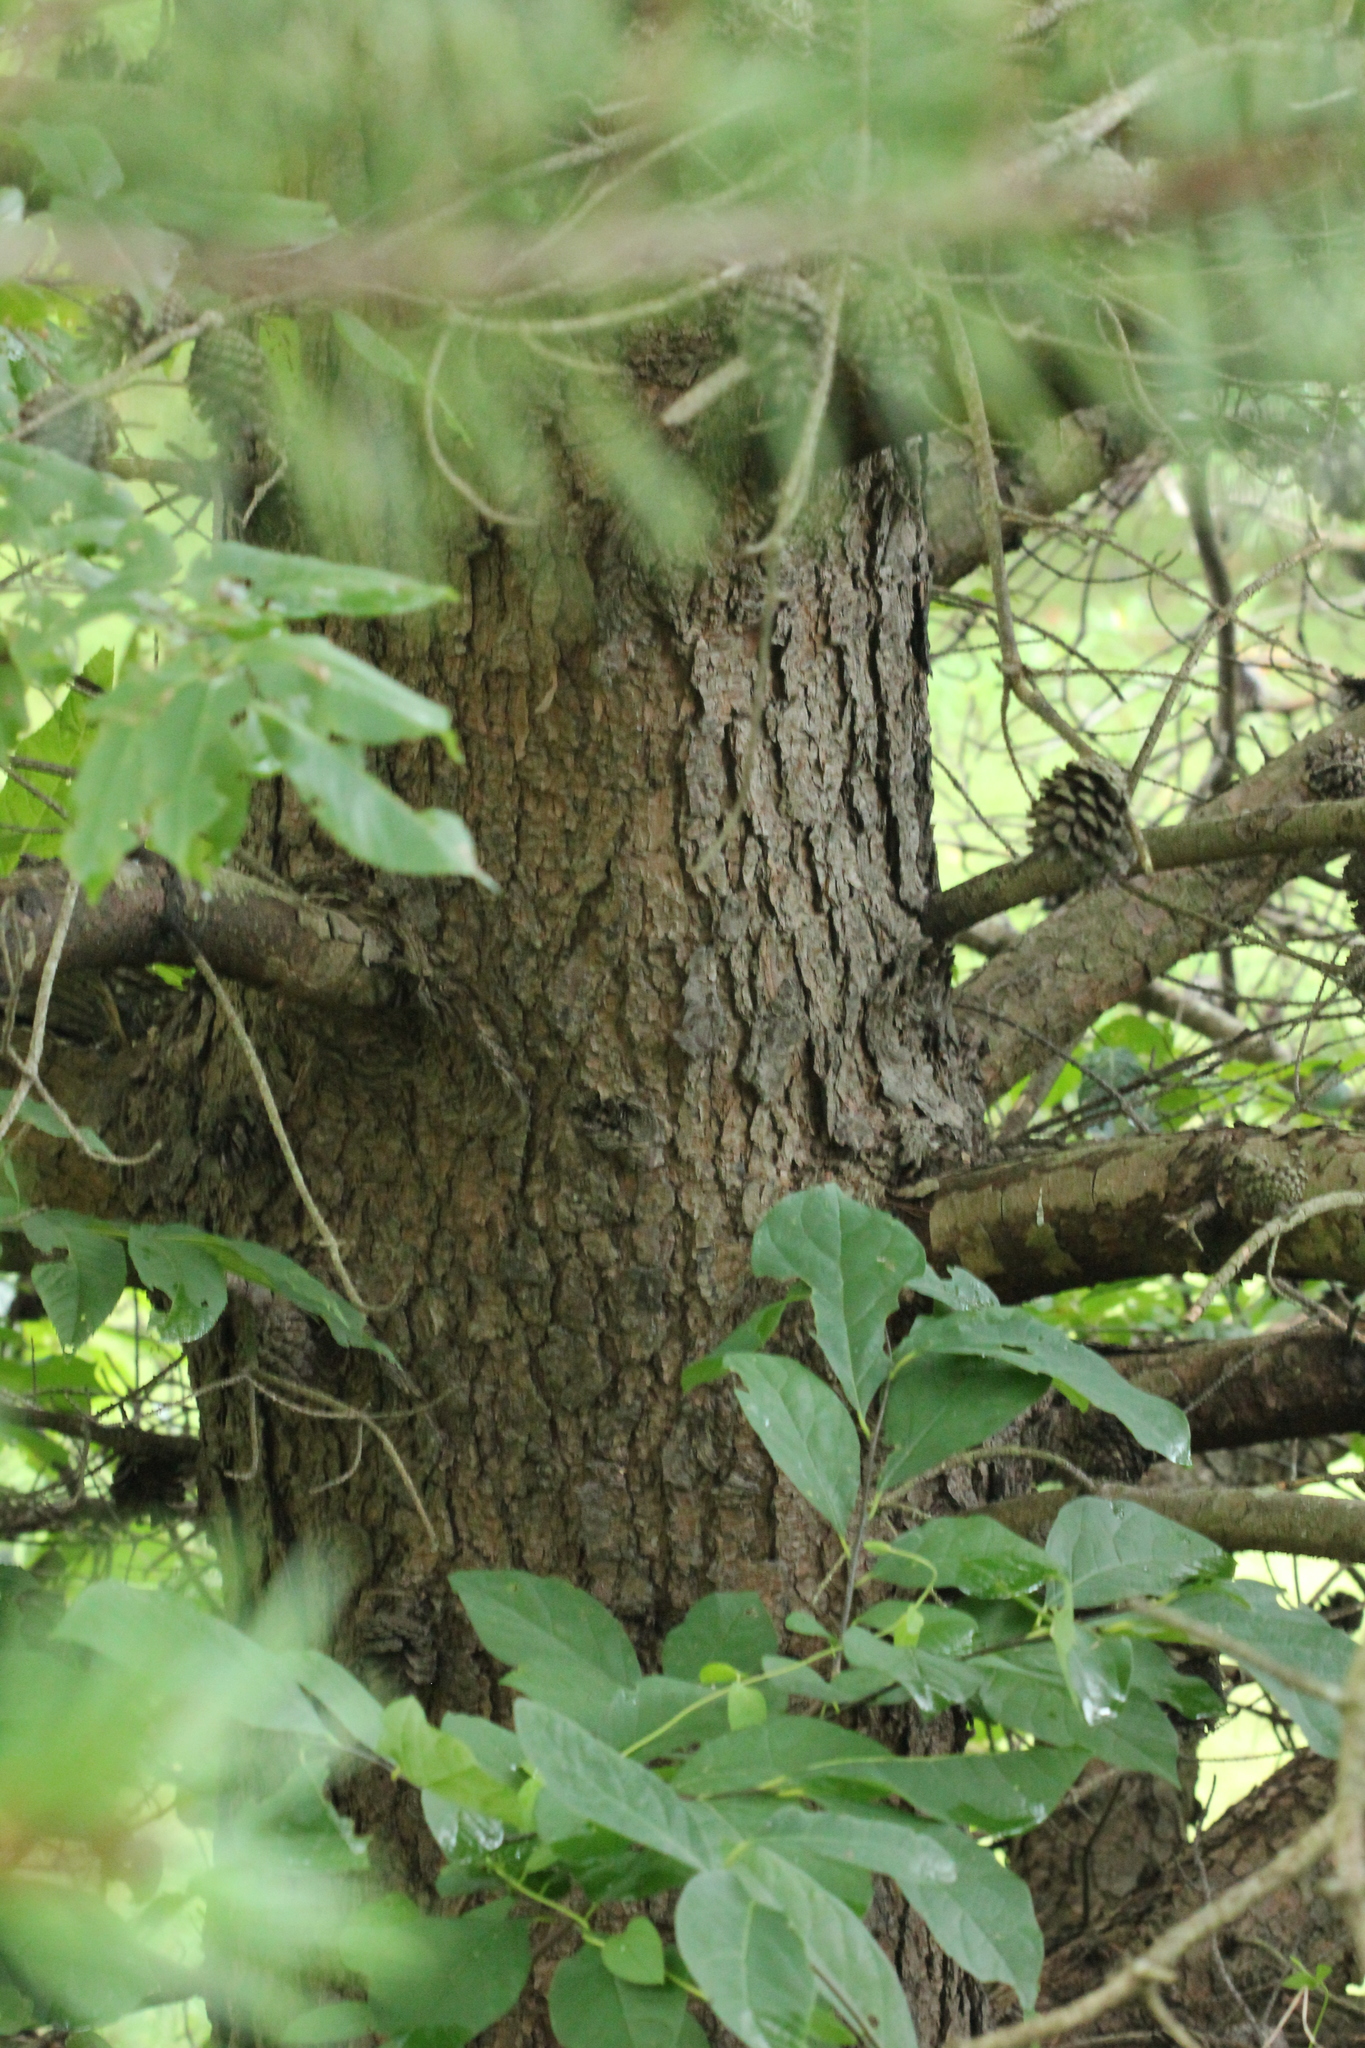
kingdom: Plantae
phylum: Tracheophyta
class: Pinopsida
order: Pinales
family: Pinaceae
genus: Pinus
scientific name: Pinus strobus
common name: Weymouth pine
